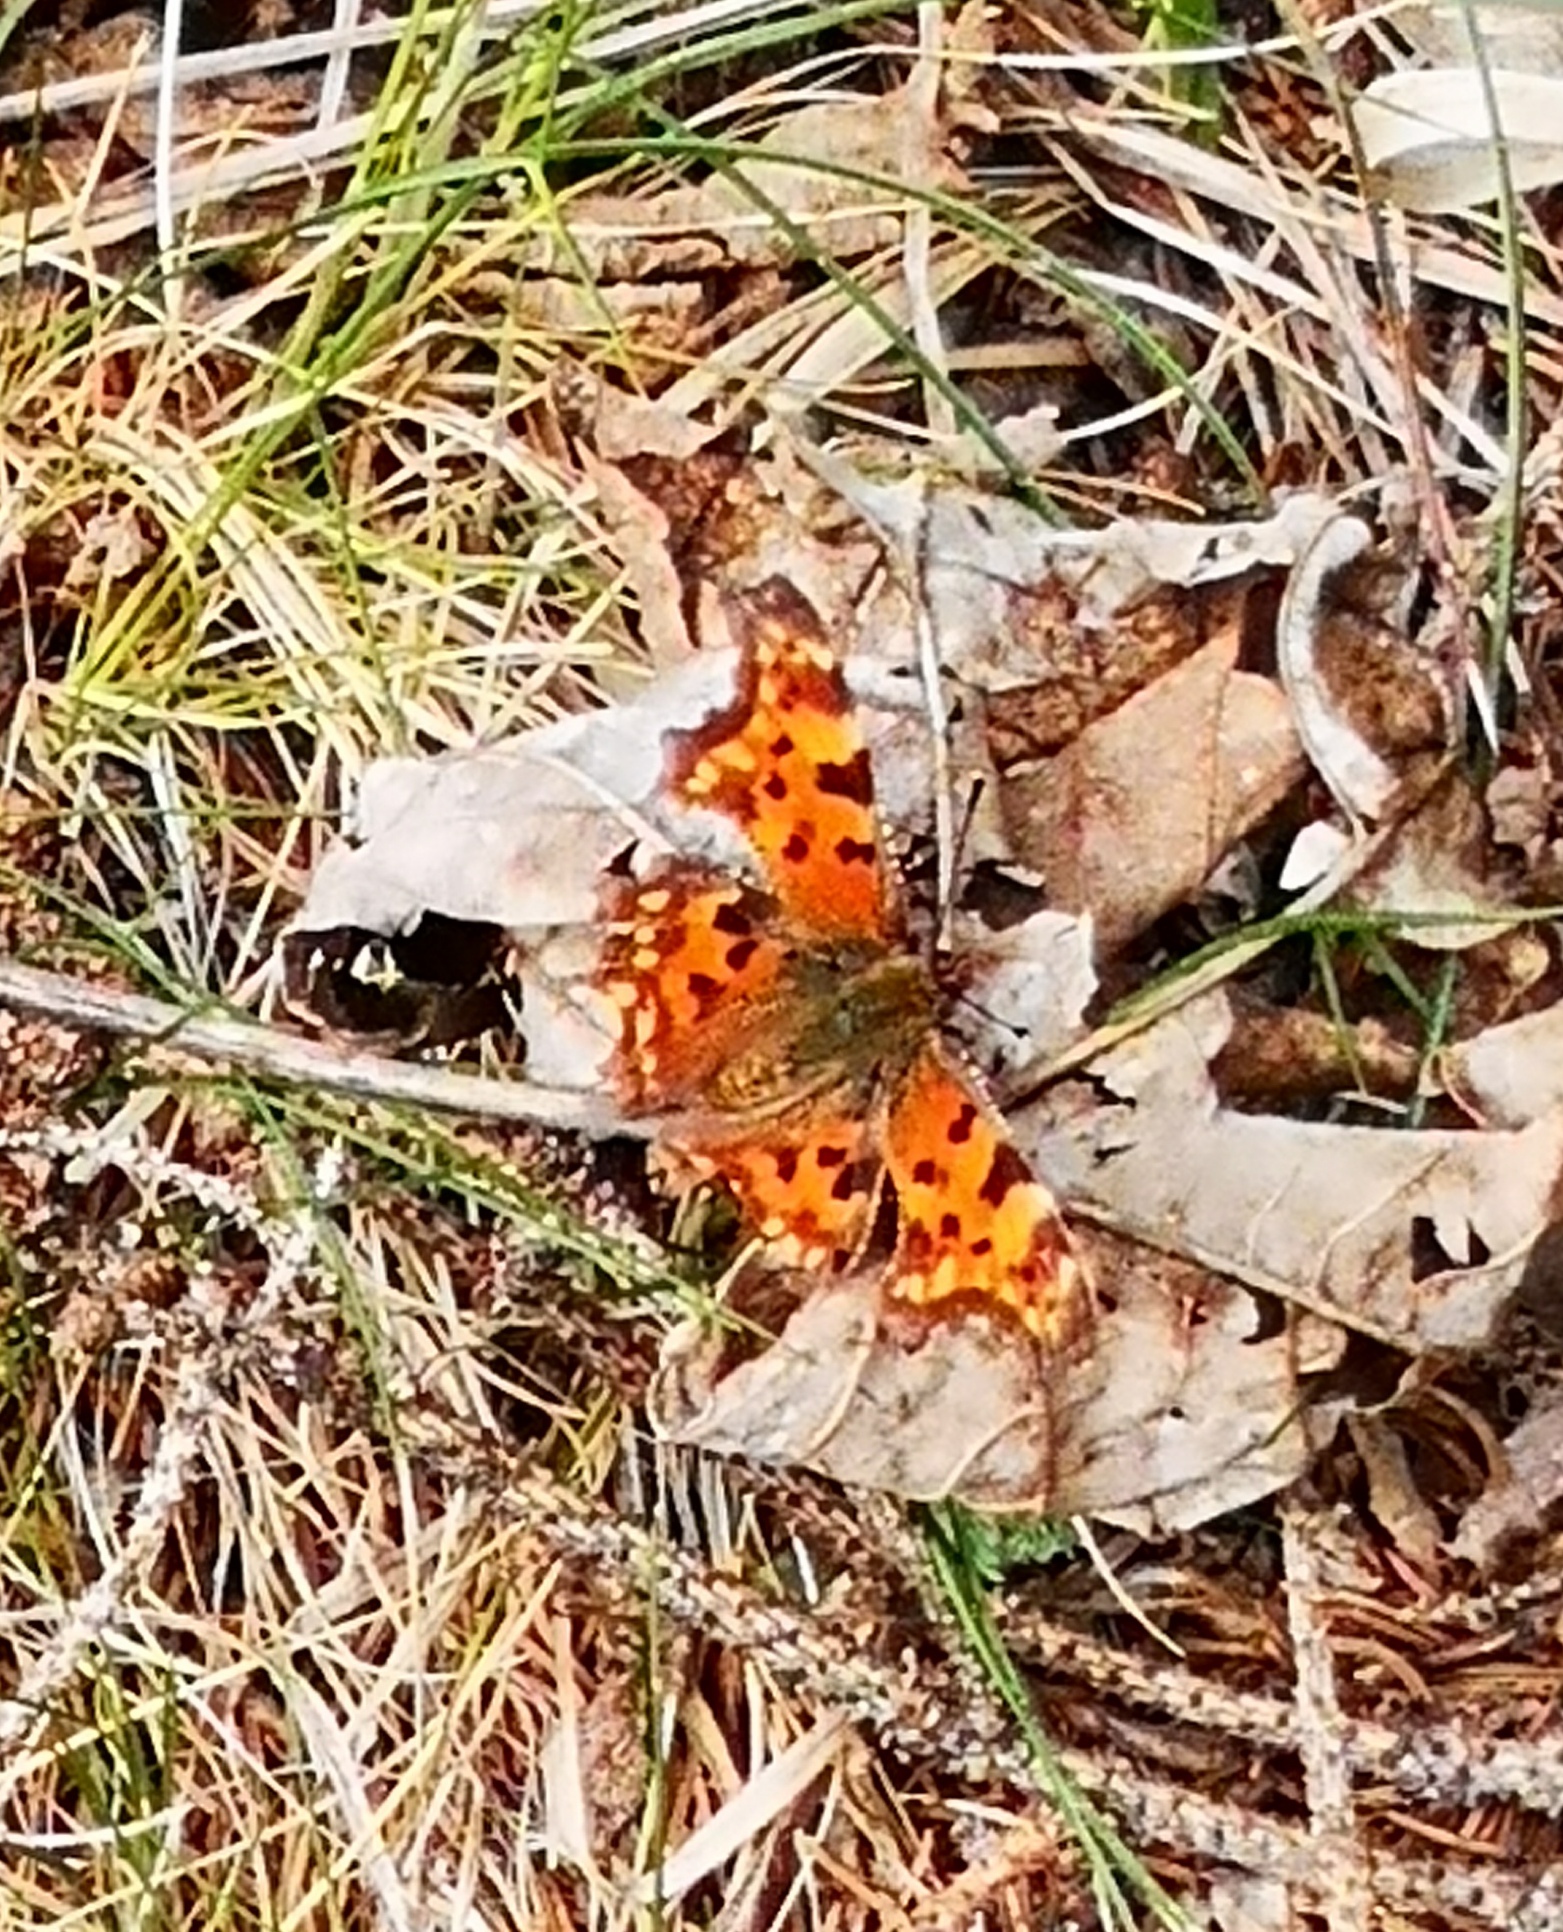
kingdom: Animalia
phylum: Arthropoda
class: Insecta
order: Lepidoptera
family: Nymphalidae
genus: Polygonia
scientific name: Polygonia c-album
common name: Comma
